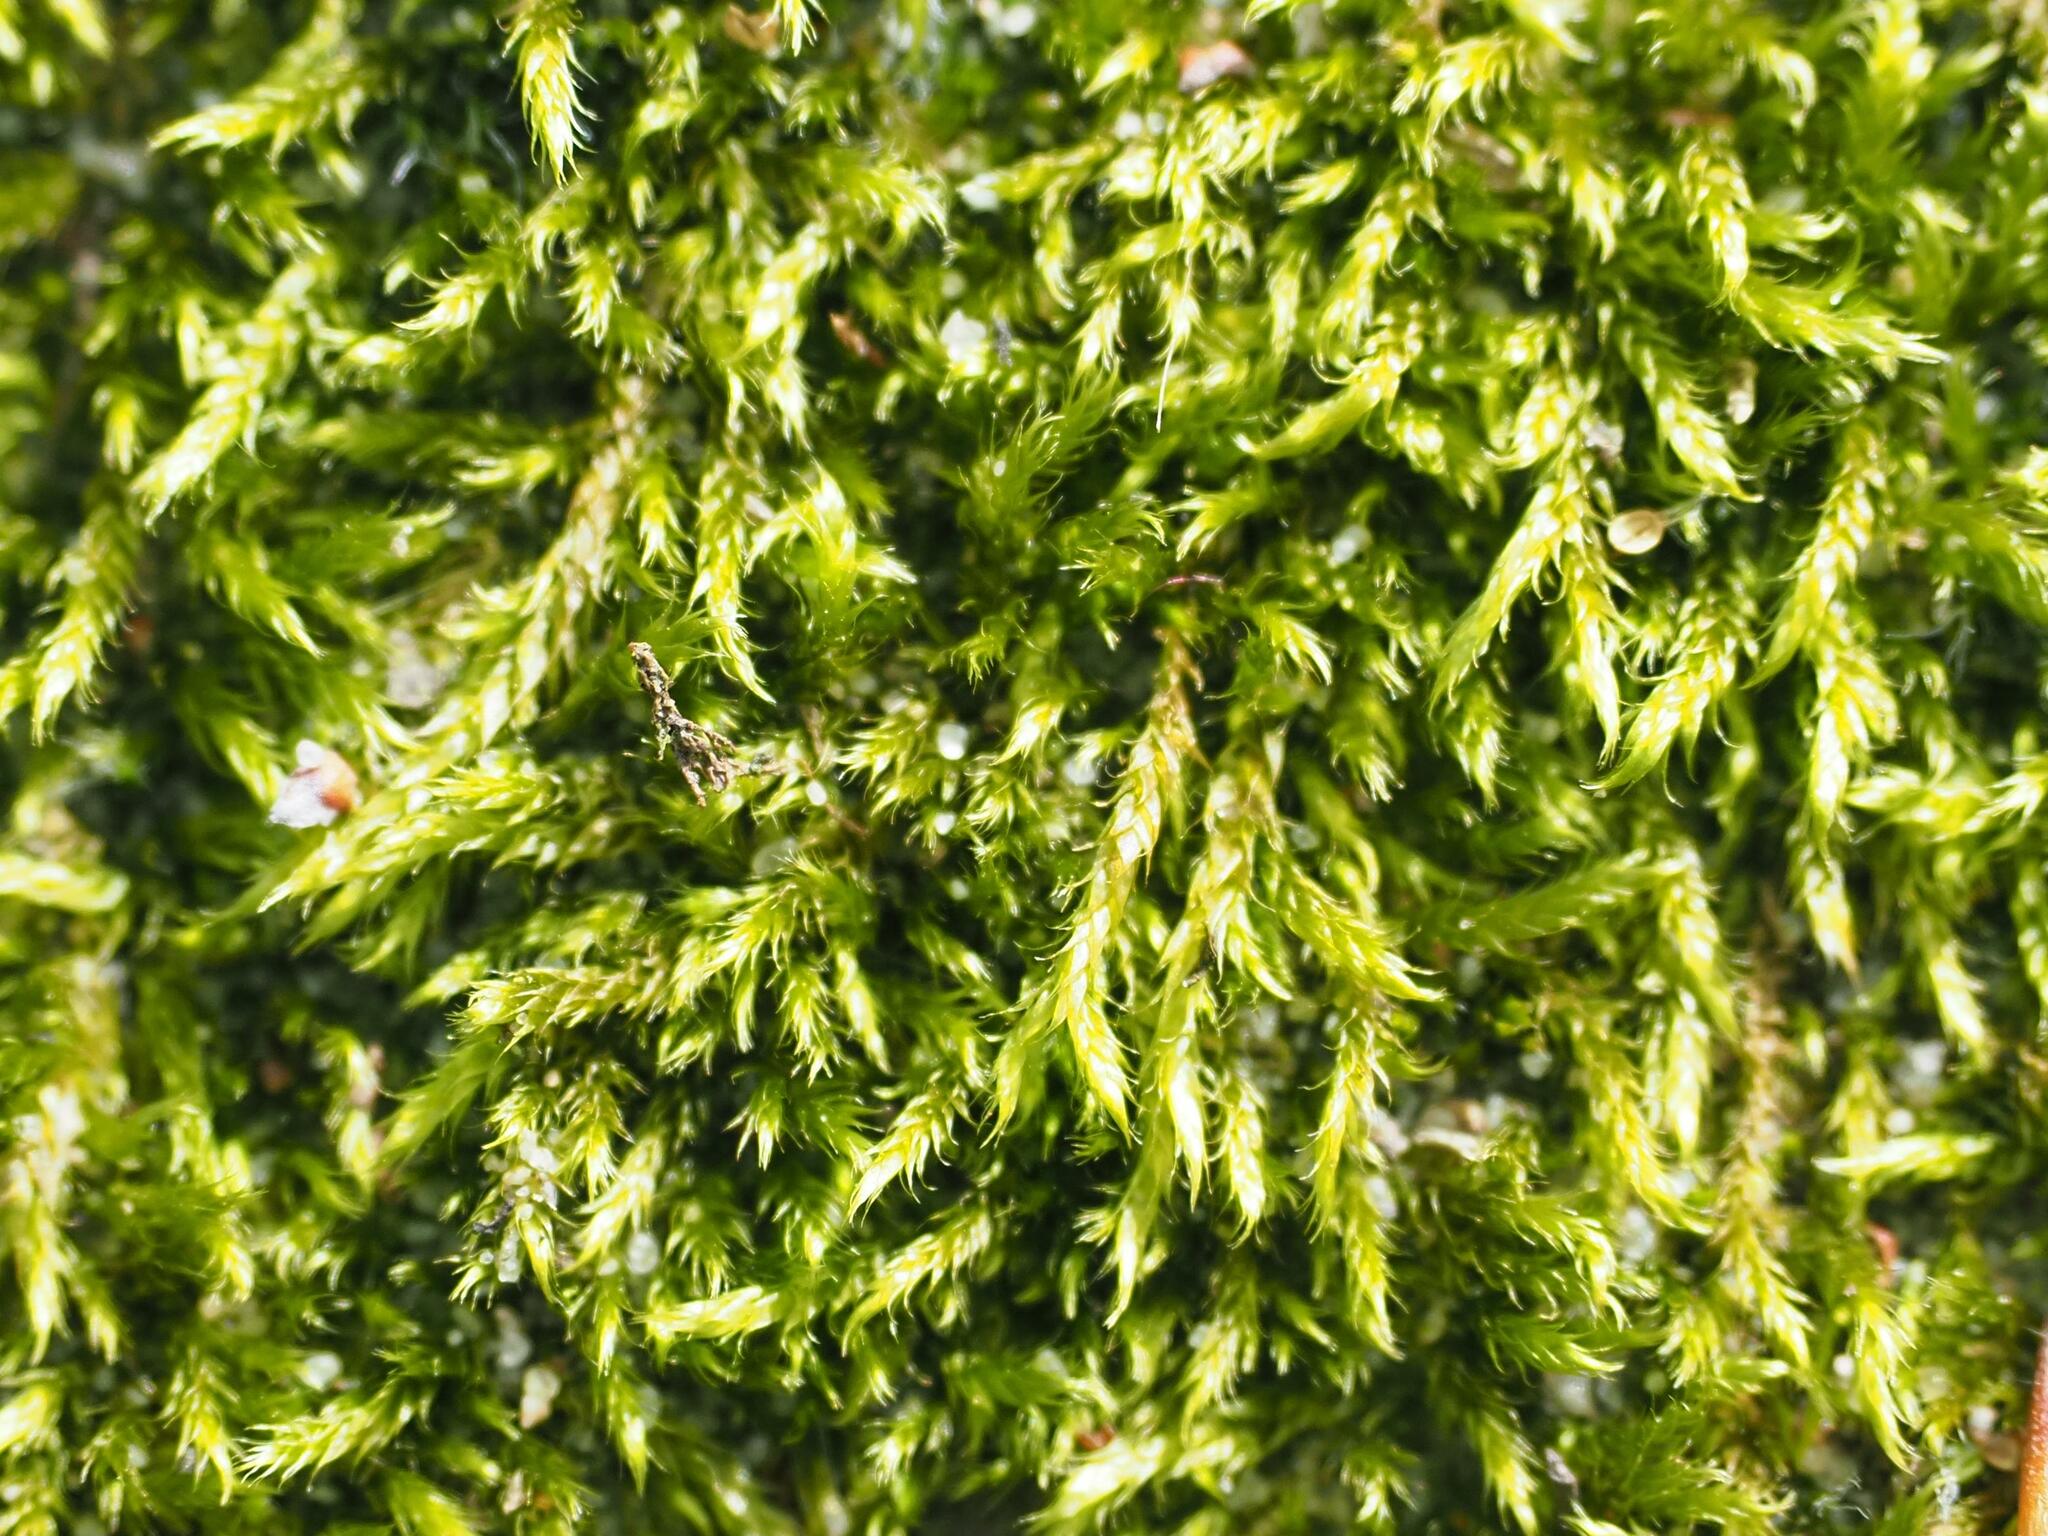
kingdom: Plantae
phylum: Bryophyta
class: Bryopsida
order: Hypnales
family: Hypnaceae
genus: Hypnum
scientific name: Hypnum cupressiforme
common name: Cypress-leaved plait-moss
